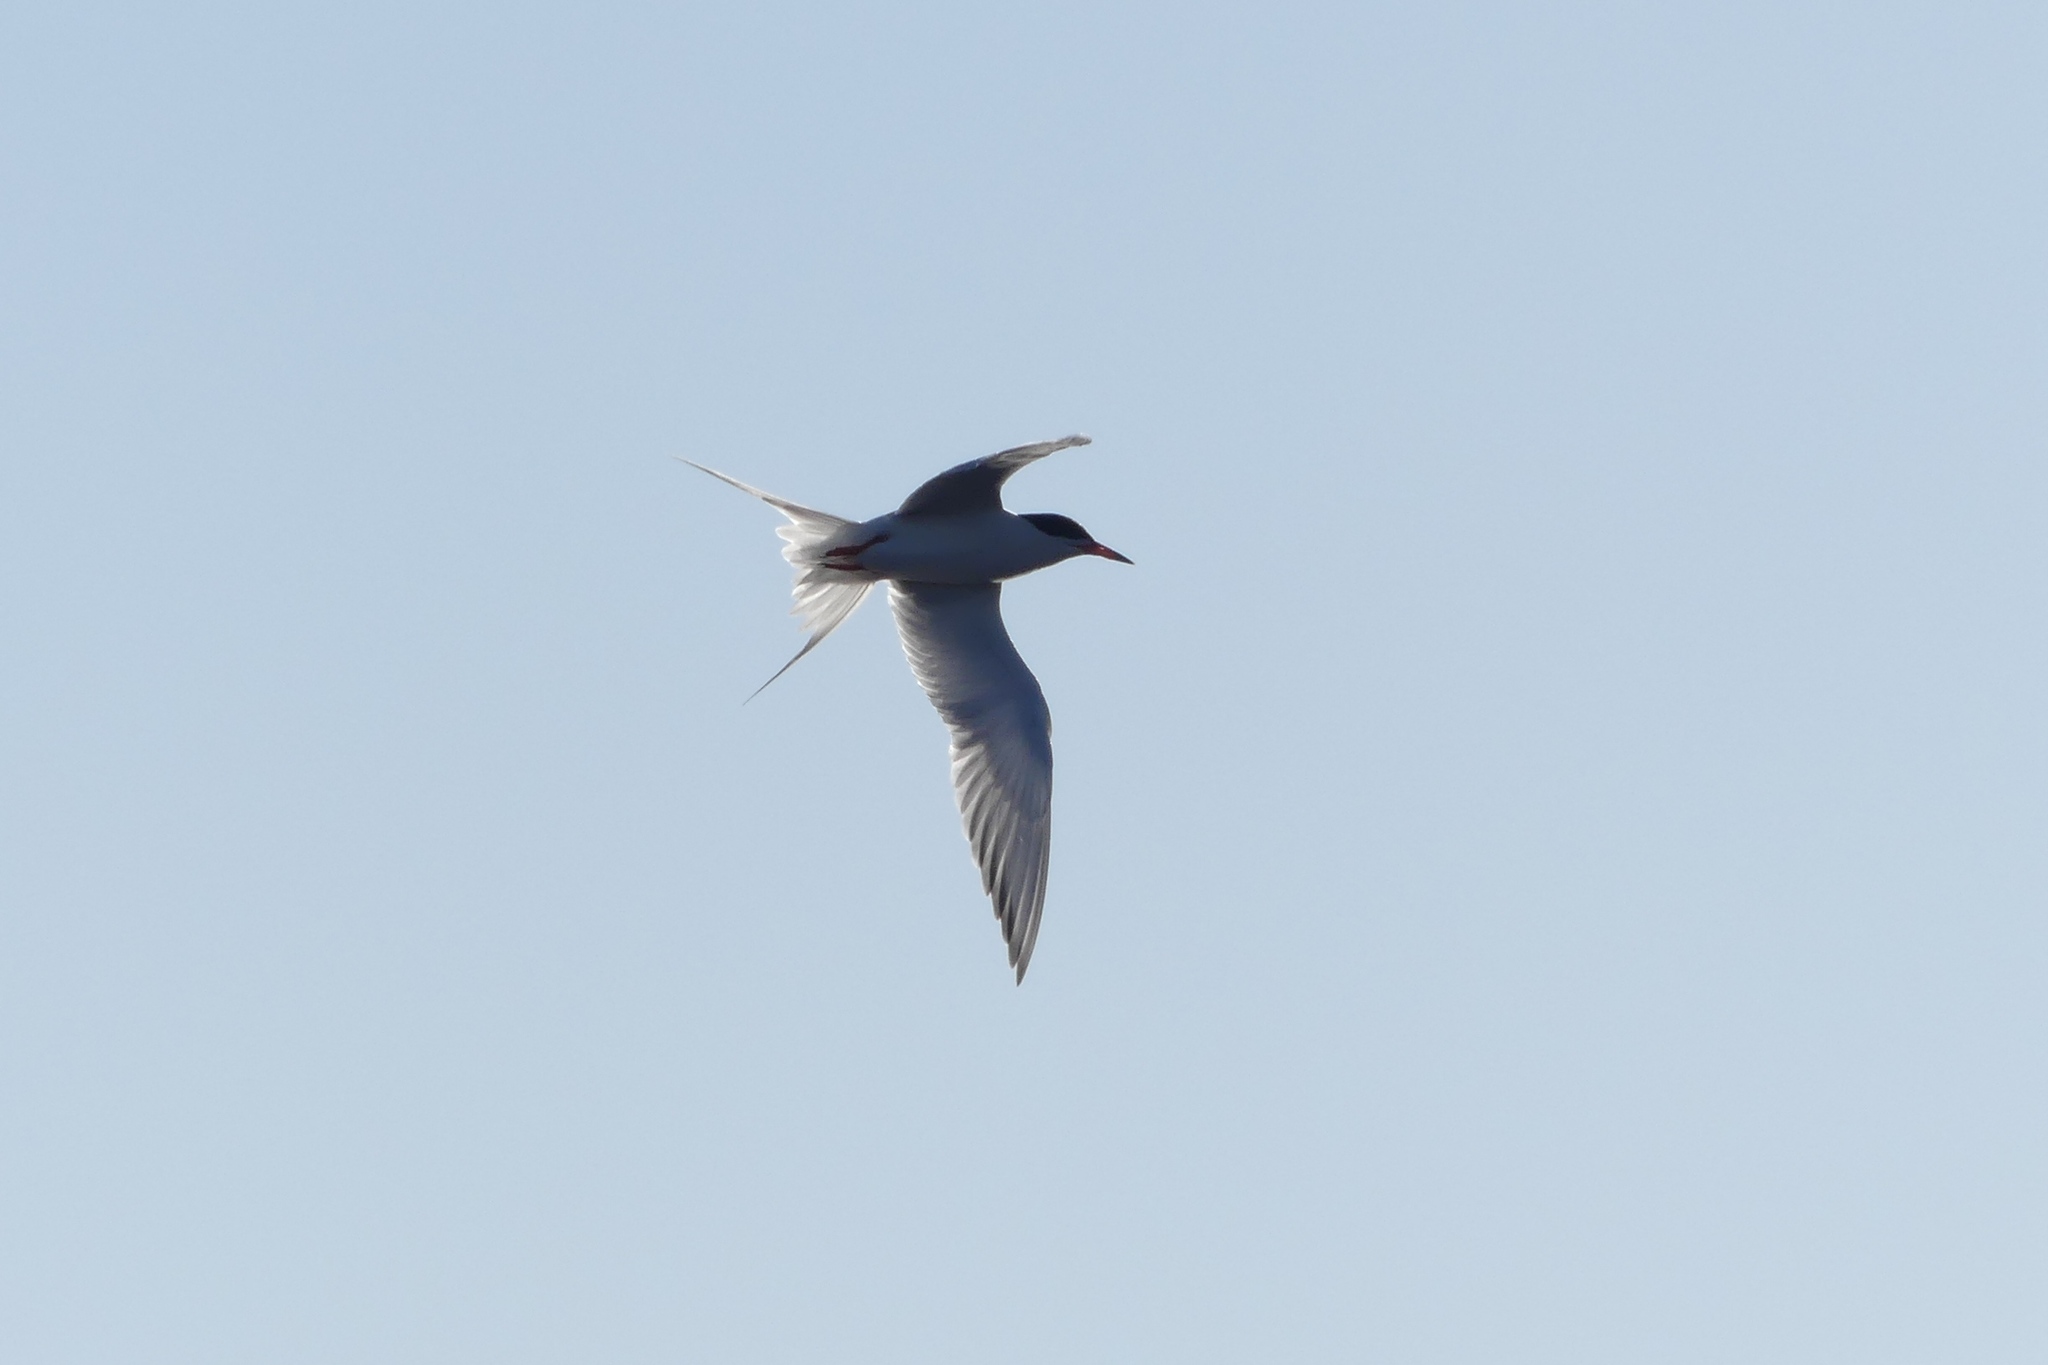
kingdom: Animalia
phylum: Chordata
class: Aves
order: Charadriiformes
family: Laridae
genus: Sterna
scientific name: Sterna forsteri
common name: Forster's tern
